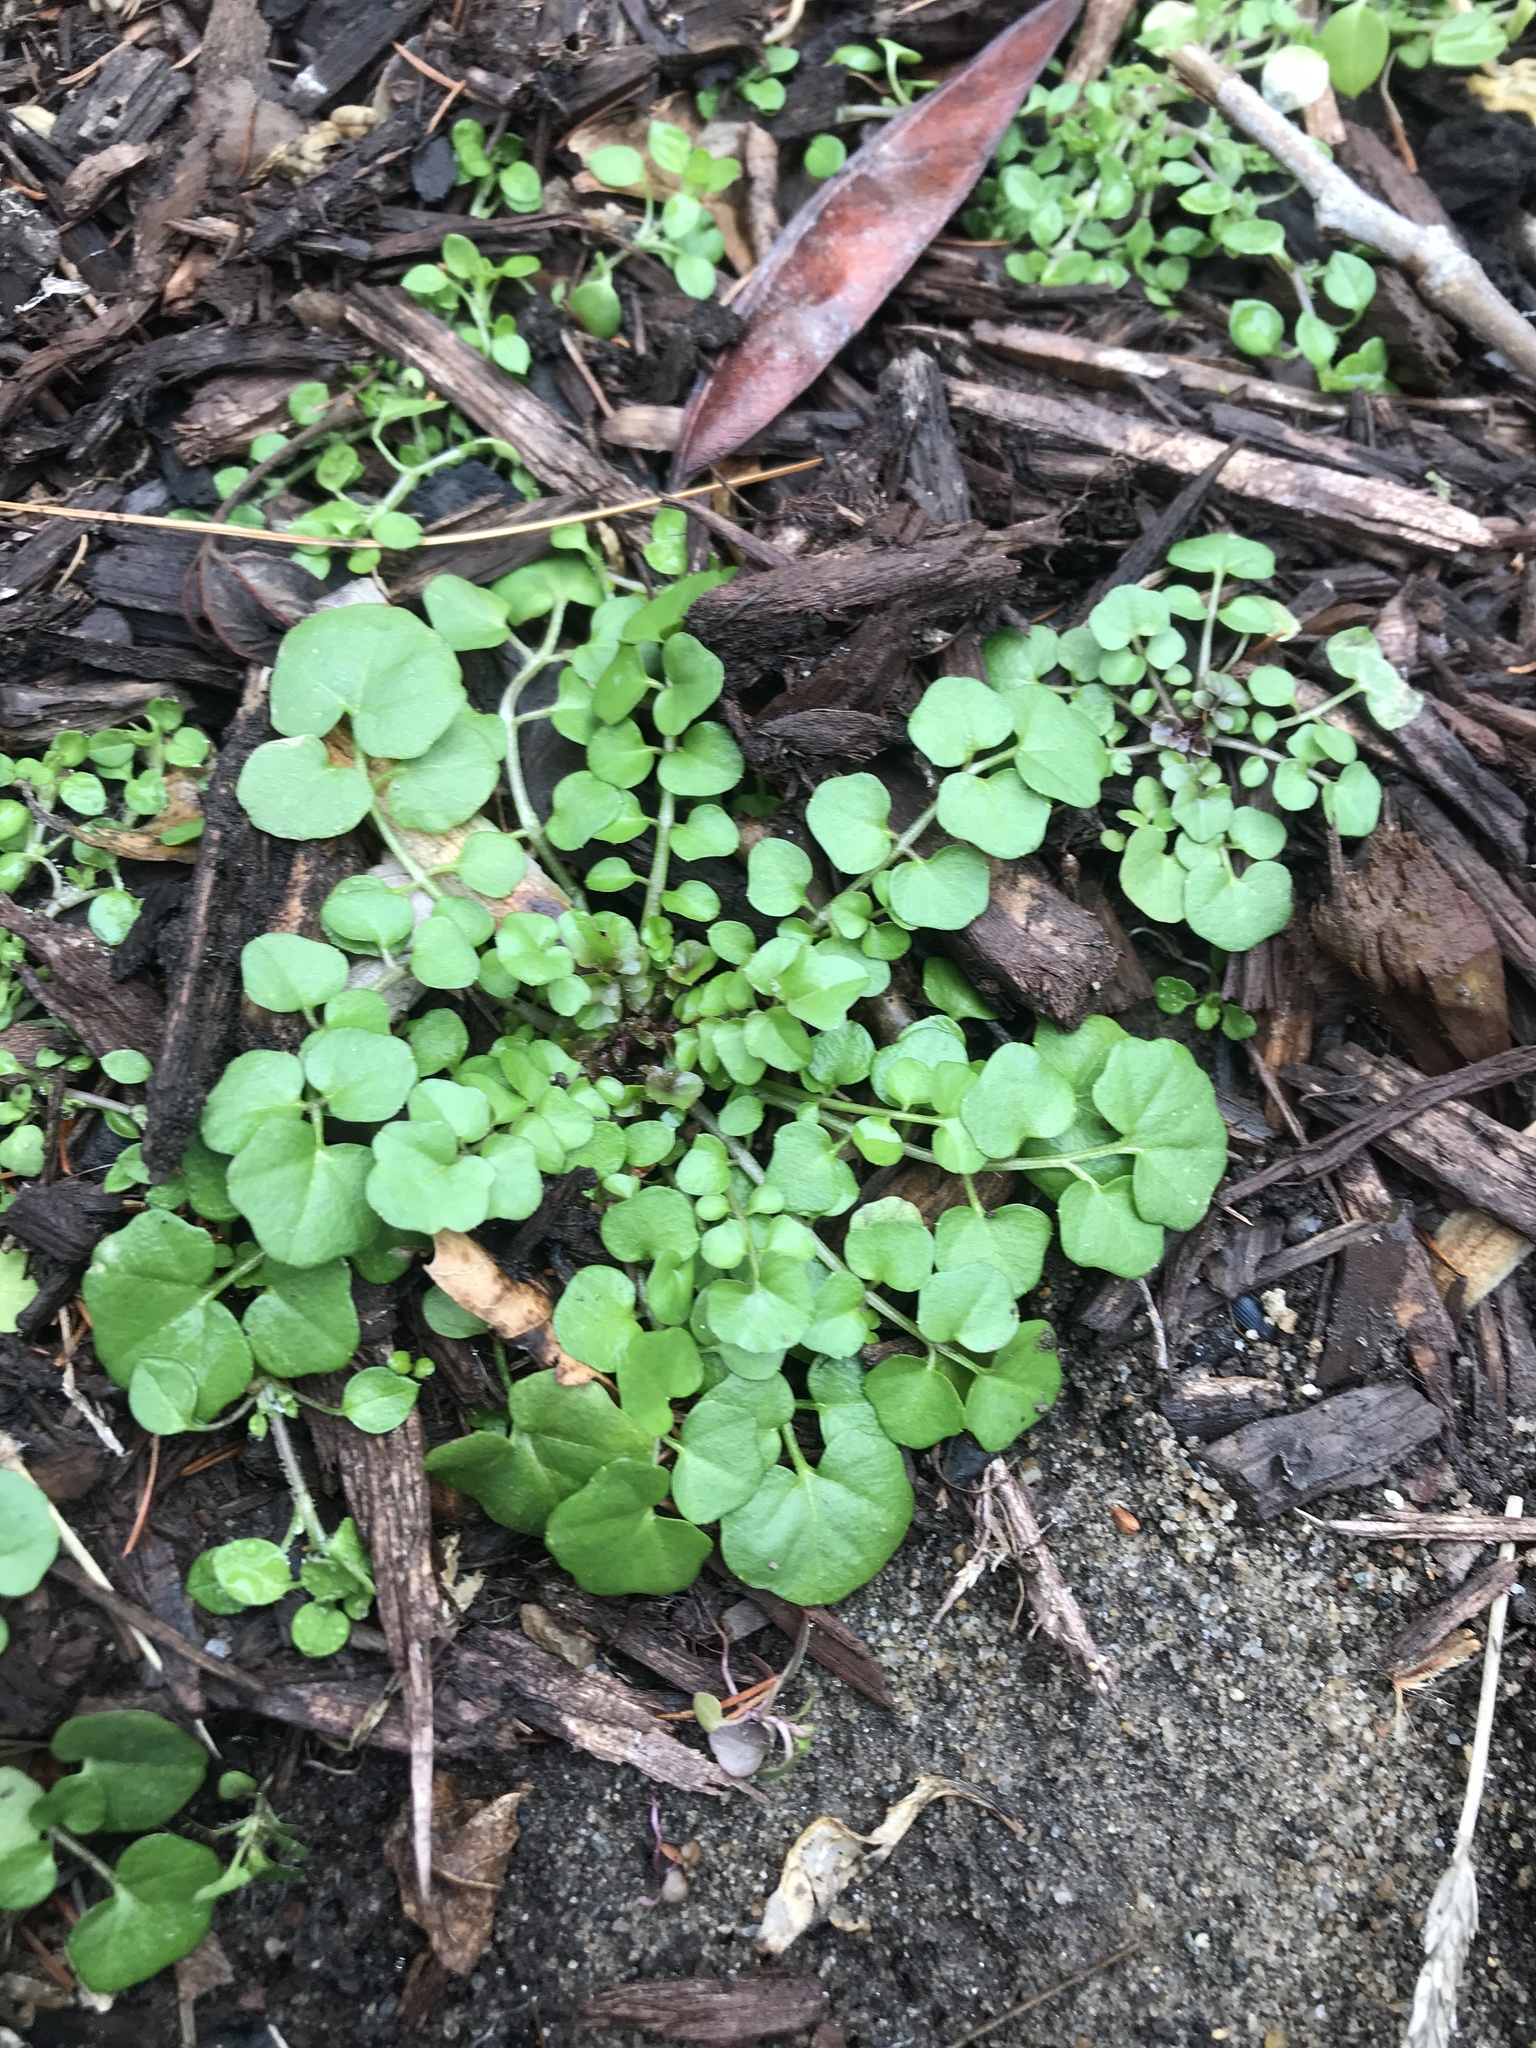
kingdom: Plantae
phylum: Tracheophyta
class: Magnoliopsida
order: Brassicales
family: Brassicaceae
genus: Cardamine
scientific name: Cardamine hirsuta
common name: Hairy bittercress
